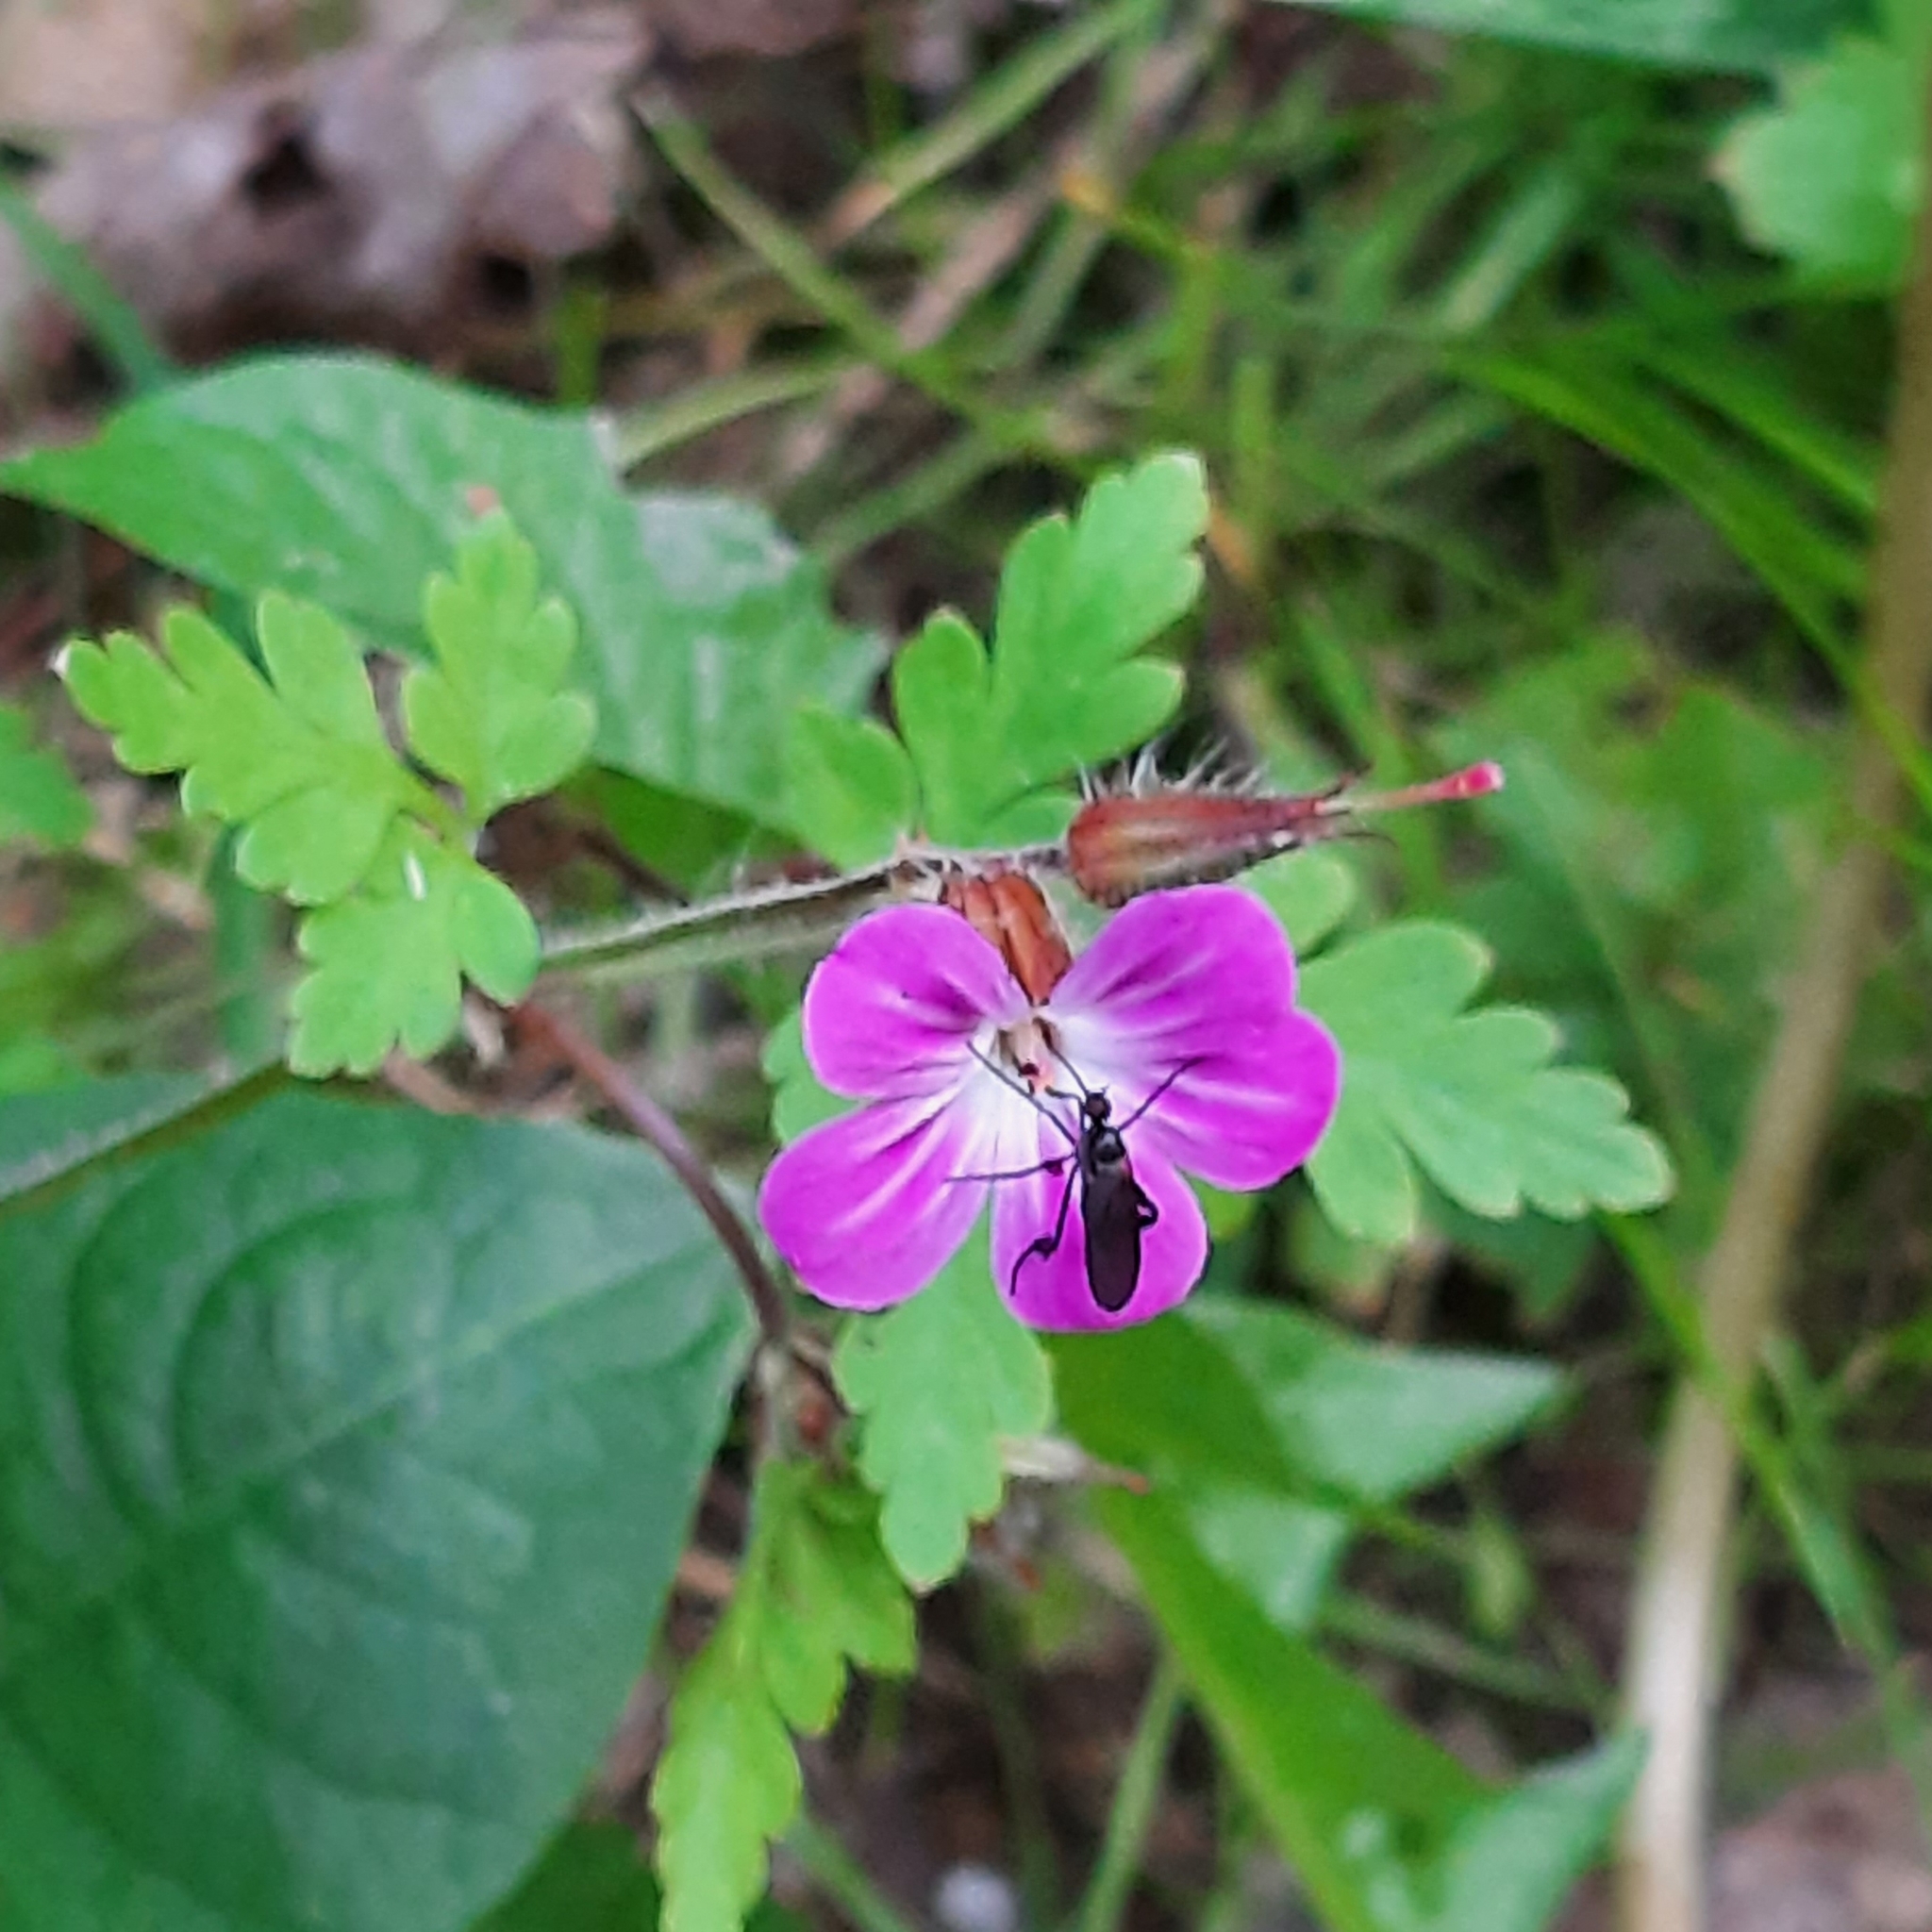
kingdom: Plantae
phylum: Tracheophyta
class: Magnoliopsida
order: Geraniales
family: Geraniaceae
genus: Geranium
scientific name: Geranium robertianum
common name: Herb-robert
